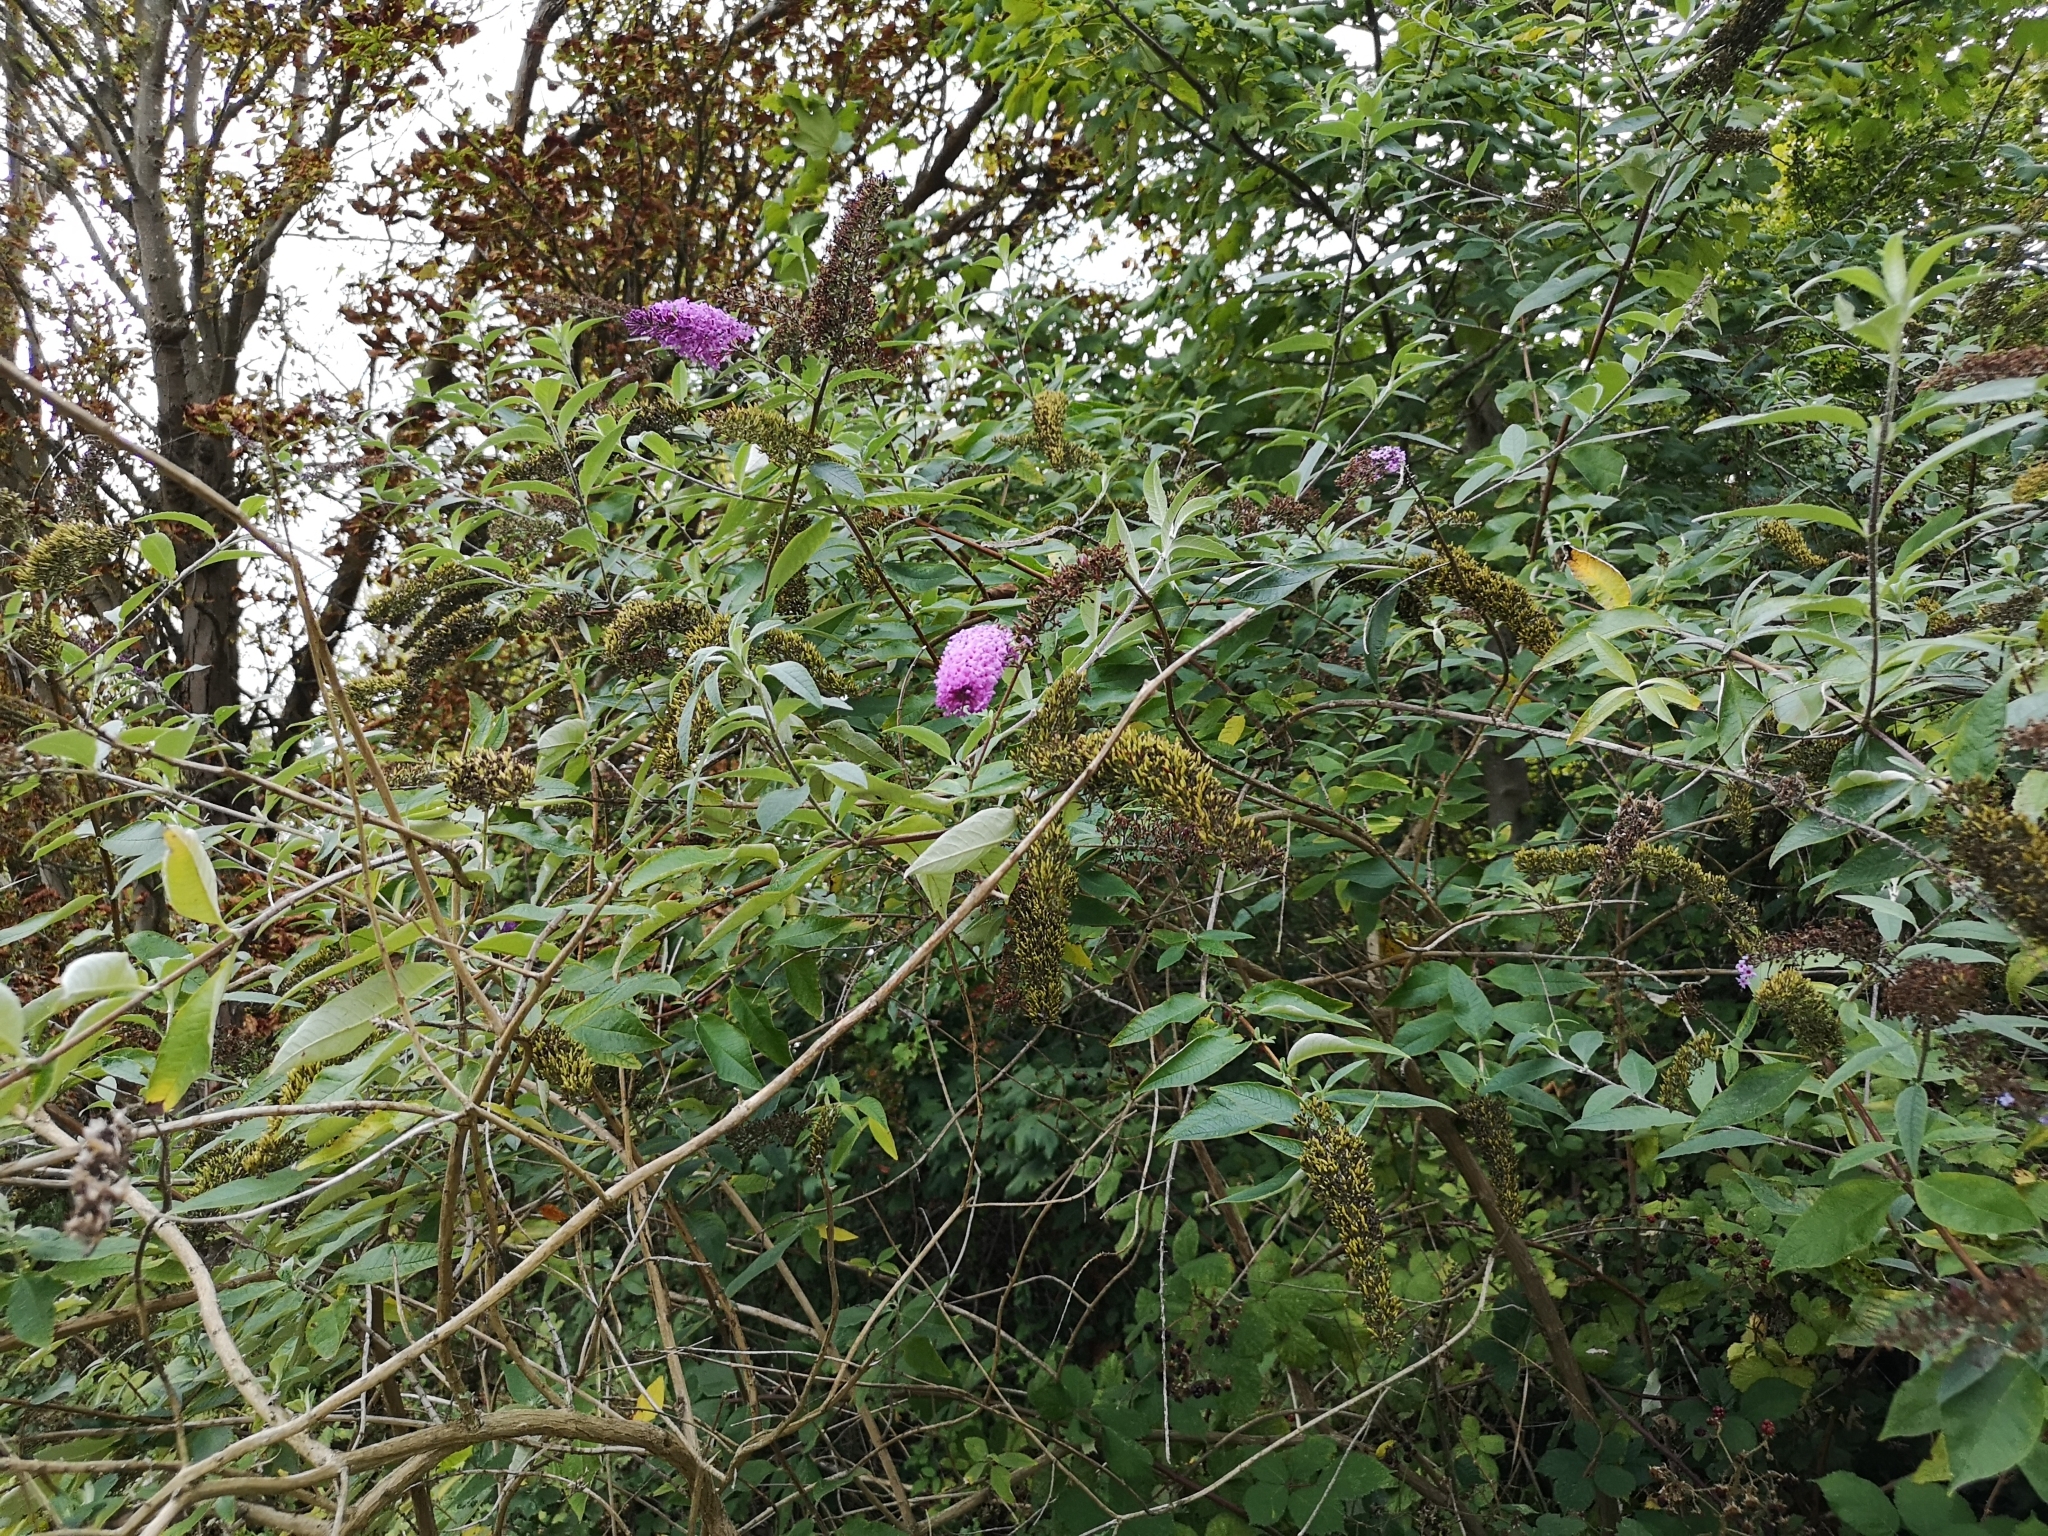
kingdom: Plantae
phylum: Tracheophyta
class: Magnoliopsida
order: Lamiales
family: Scrophulariaceae
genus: Buddleja
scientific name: Buddleja davidii
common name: Butterfly-bush
